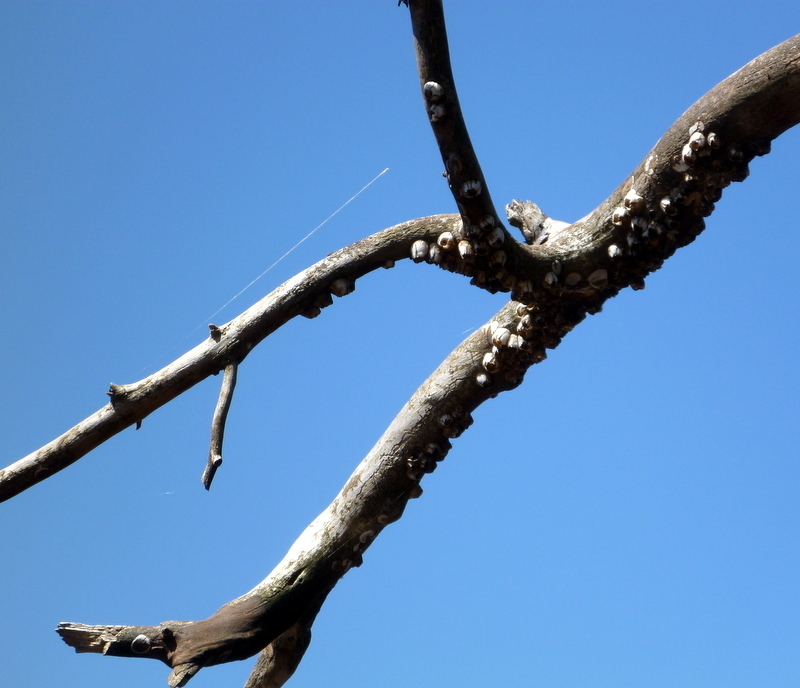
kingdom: Animalia
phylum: Arthropoda
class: Maxillopoda
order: Sessilia
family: Balanidae
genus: Amphibalanus
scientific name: Amphibalanus eburneus
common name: Ivory barnacle
